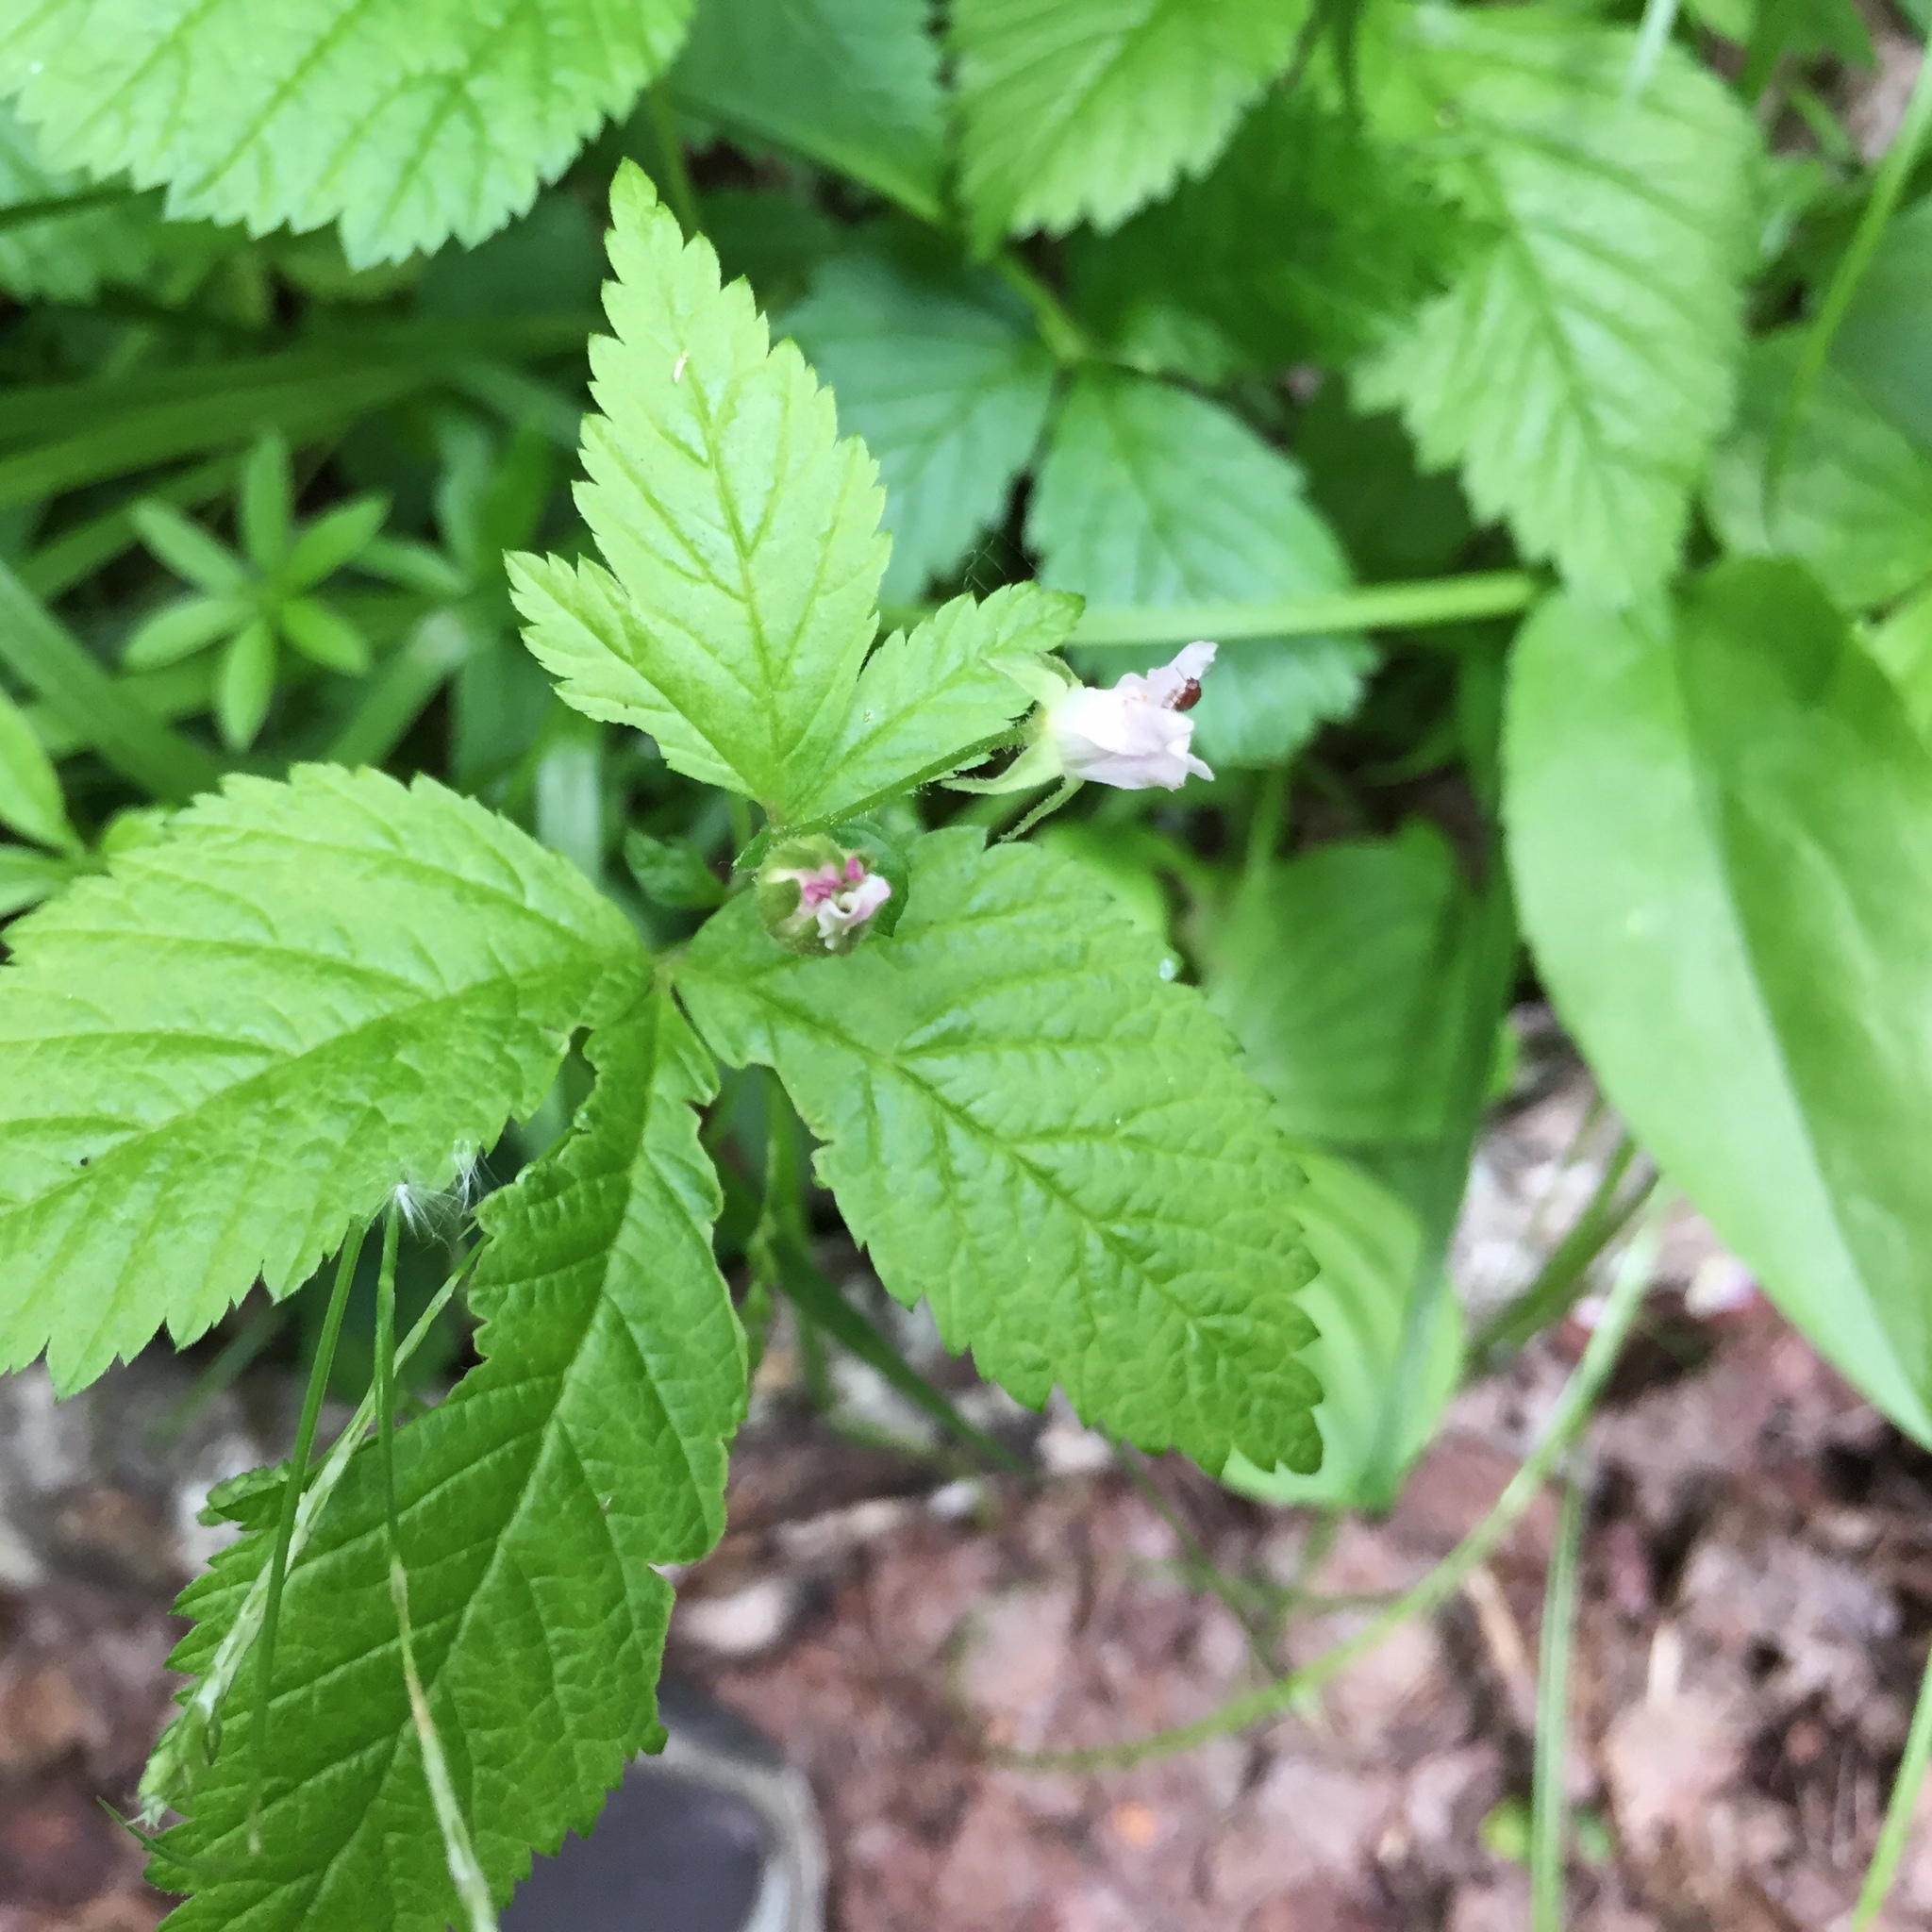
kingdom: Plantae
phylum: Tracheophyta
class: Magnoliopsida
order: Rosales
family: Rosaceae
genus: Rubus
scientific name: Rubus pubescens
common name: Dwarf raspberry
